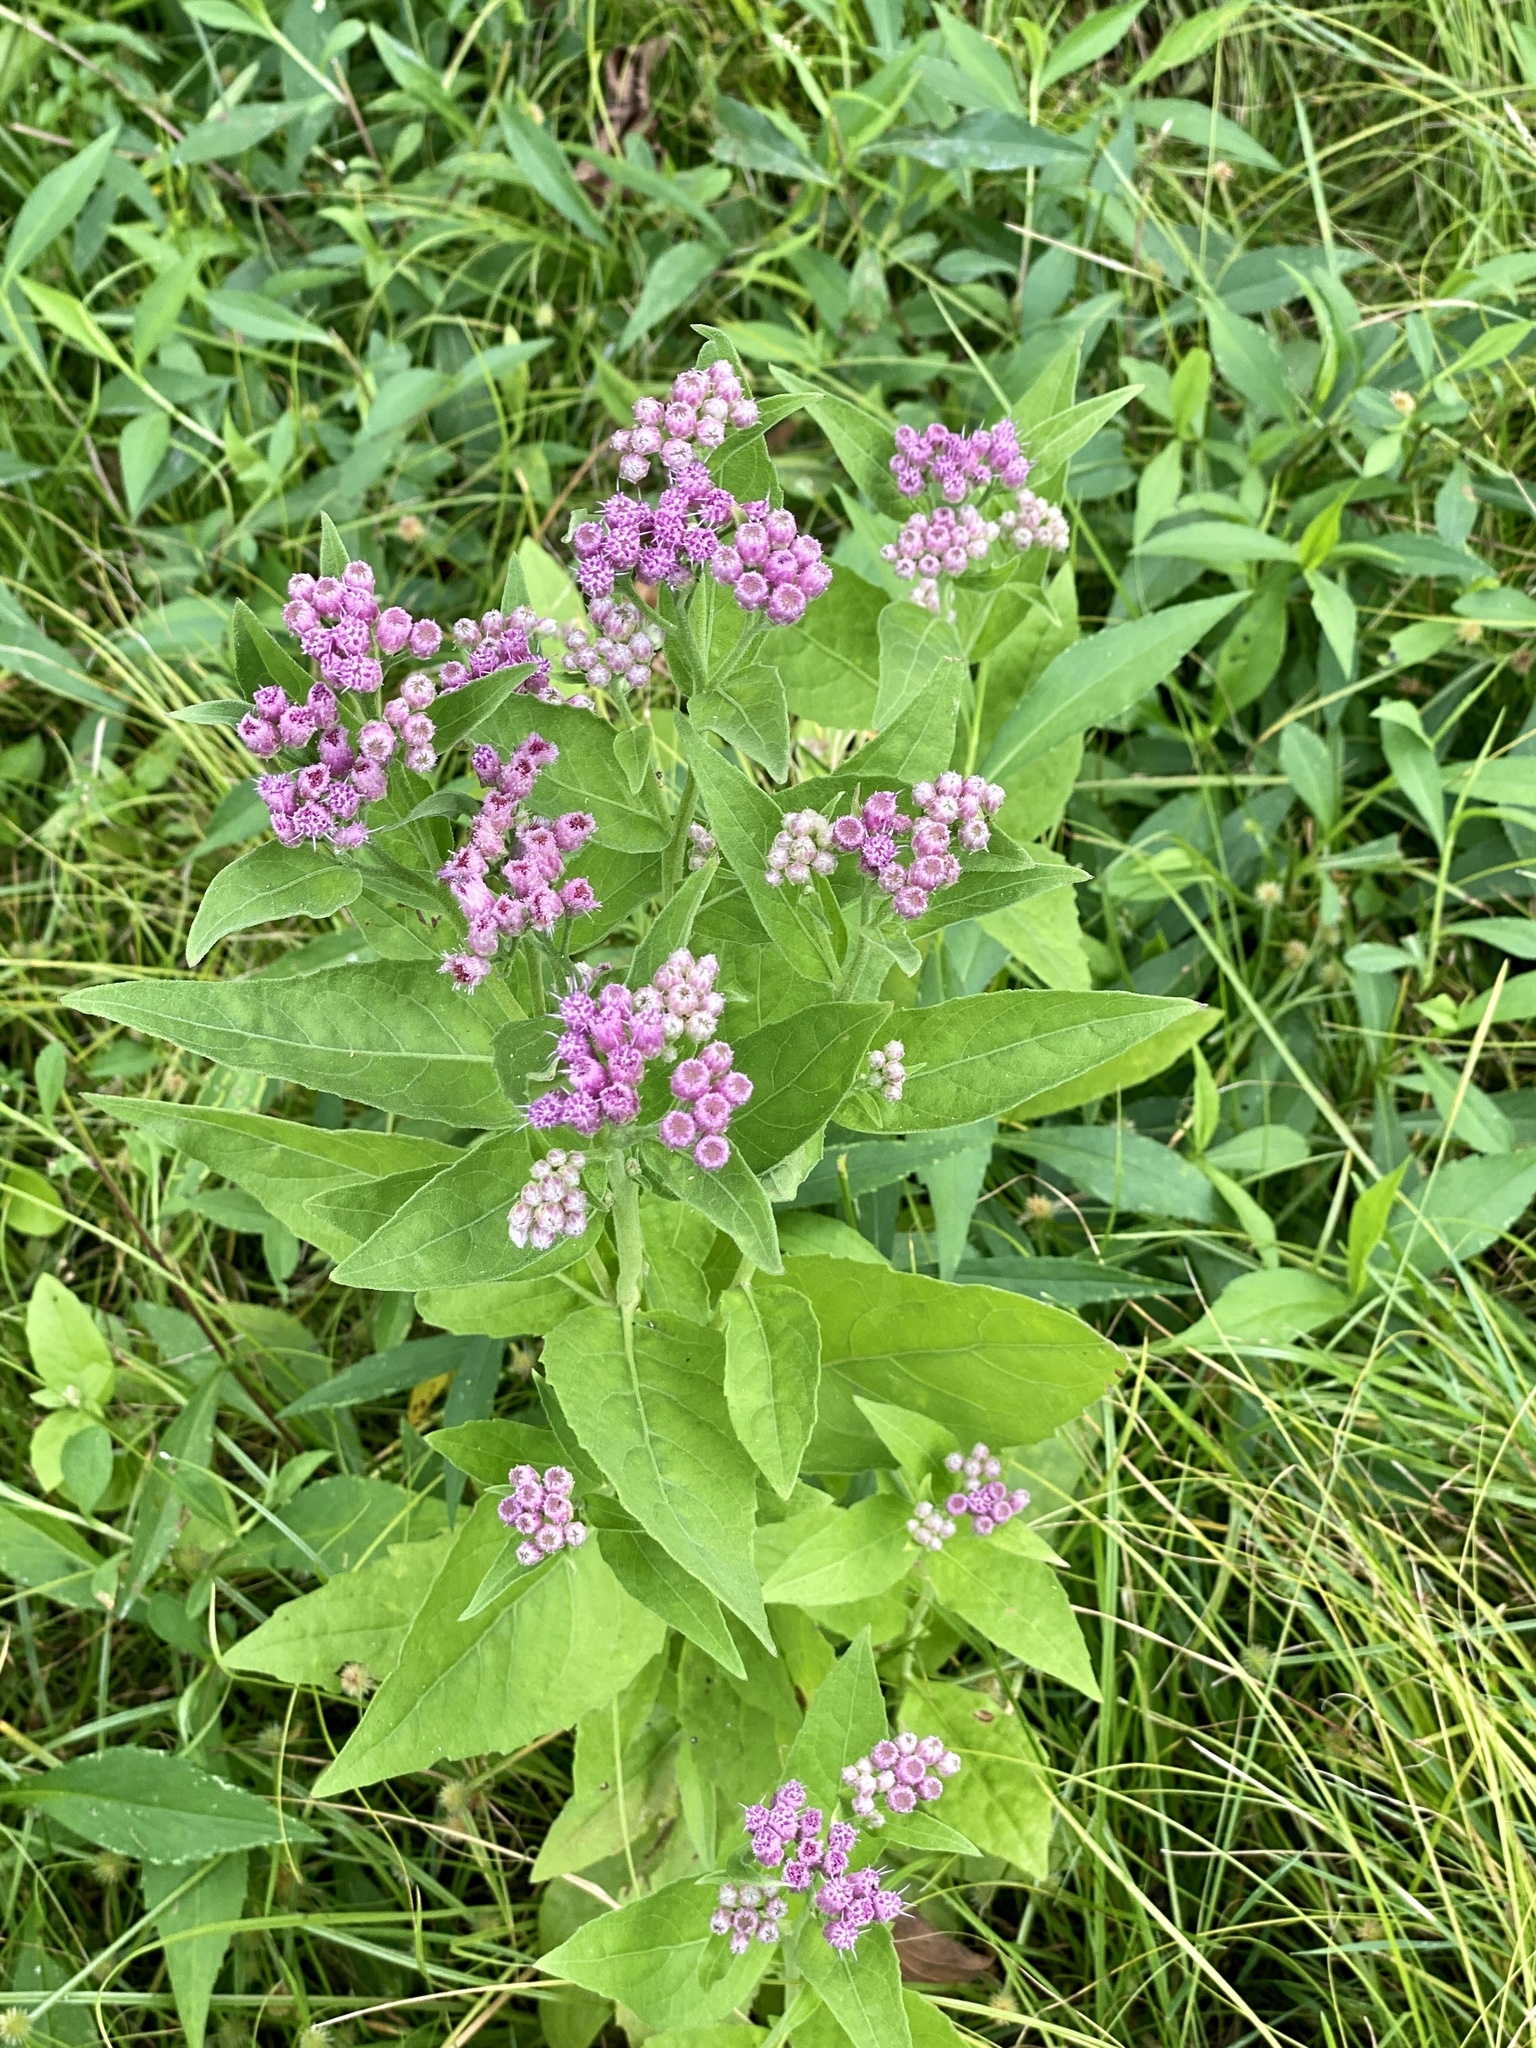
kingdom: Plantae
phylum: Tracheophyta
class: Magnoliopsida
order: Asterales
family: Asteraceae
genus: Pluchea
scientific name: Pluchea odorata
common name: Saltmarsh fleabane
